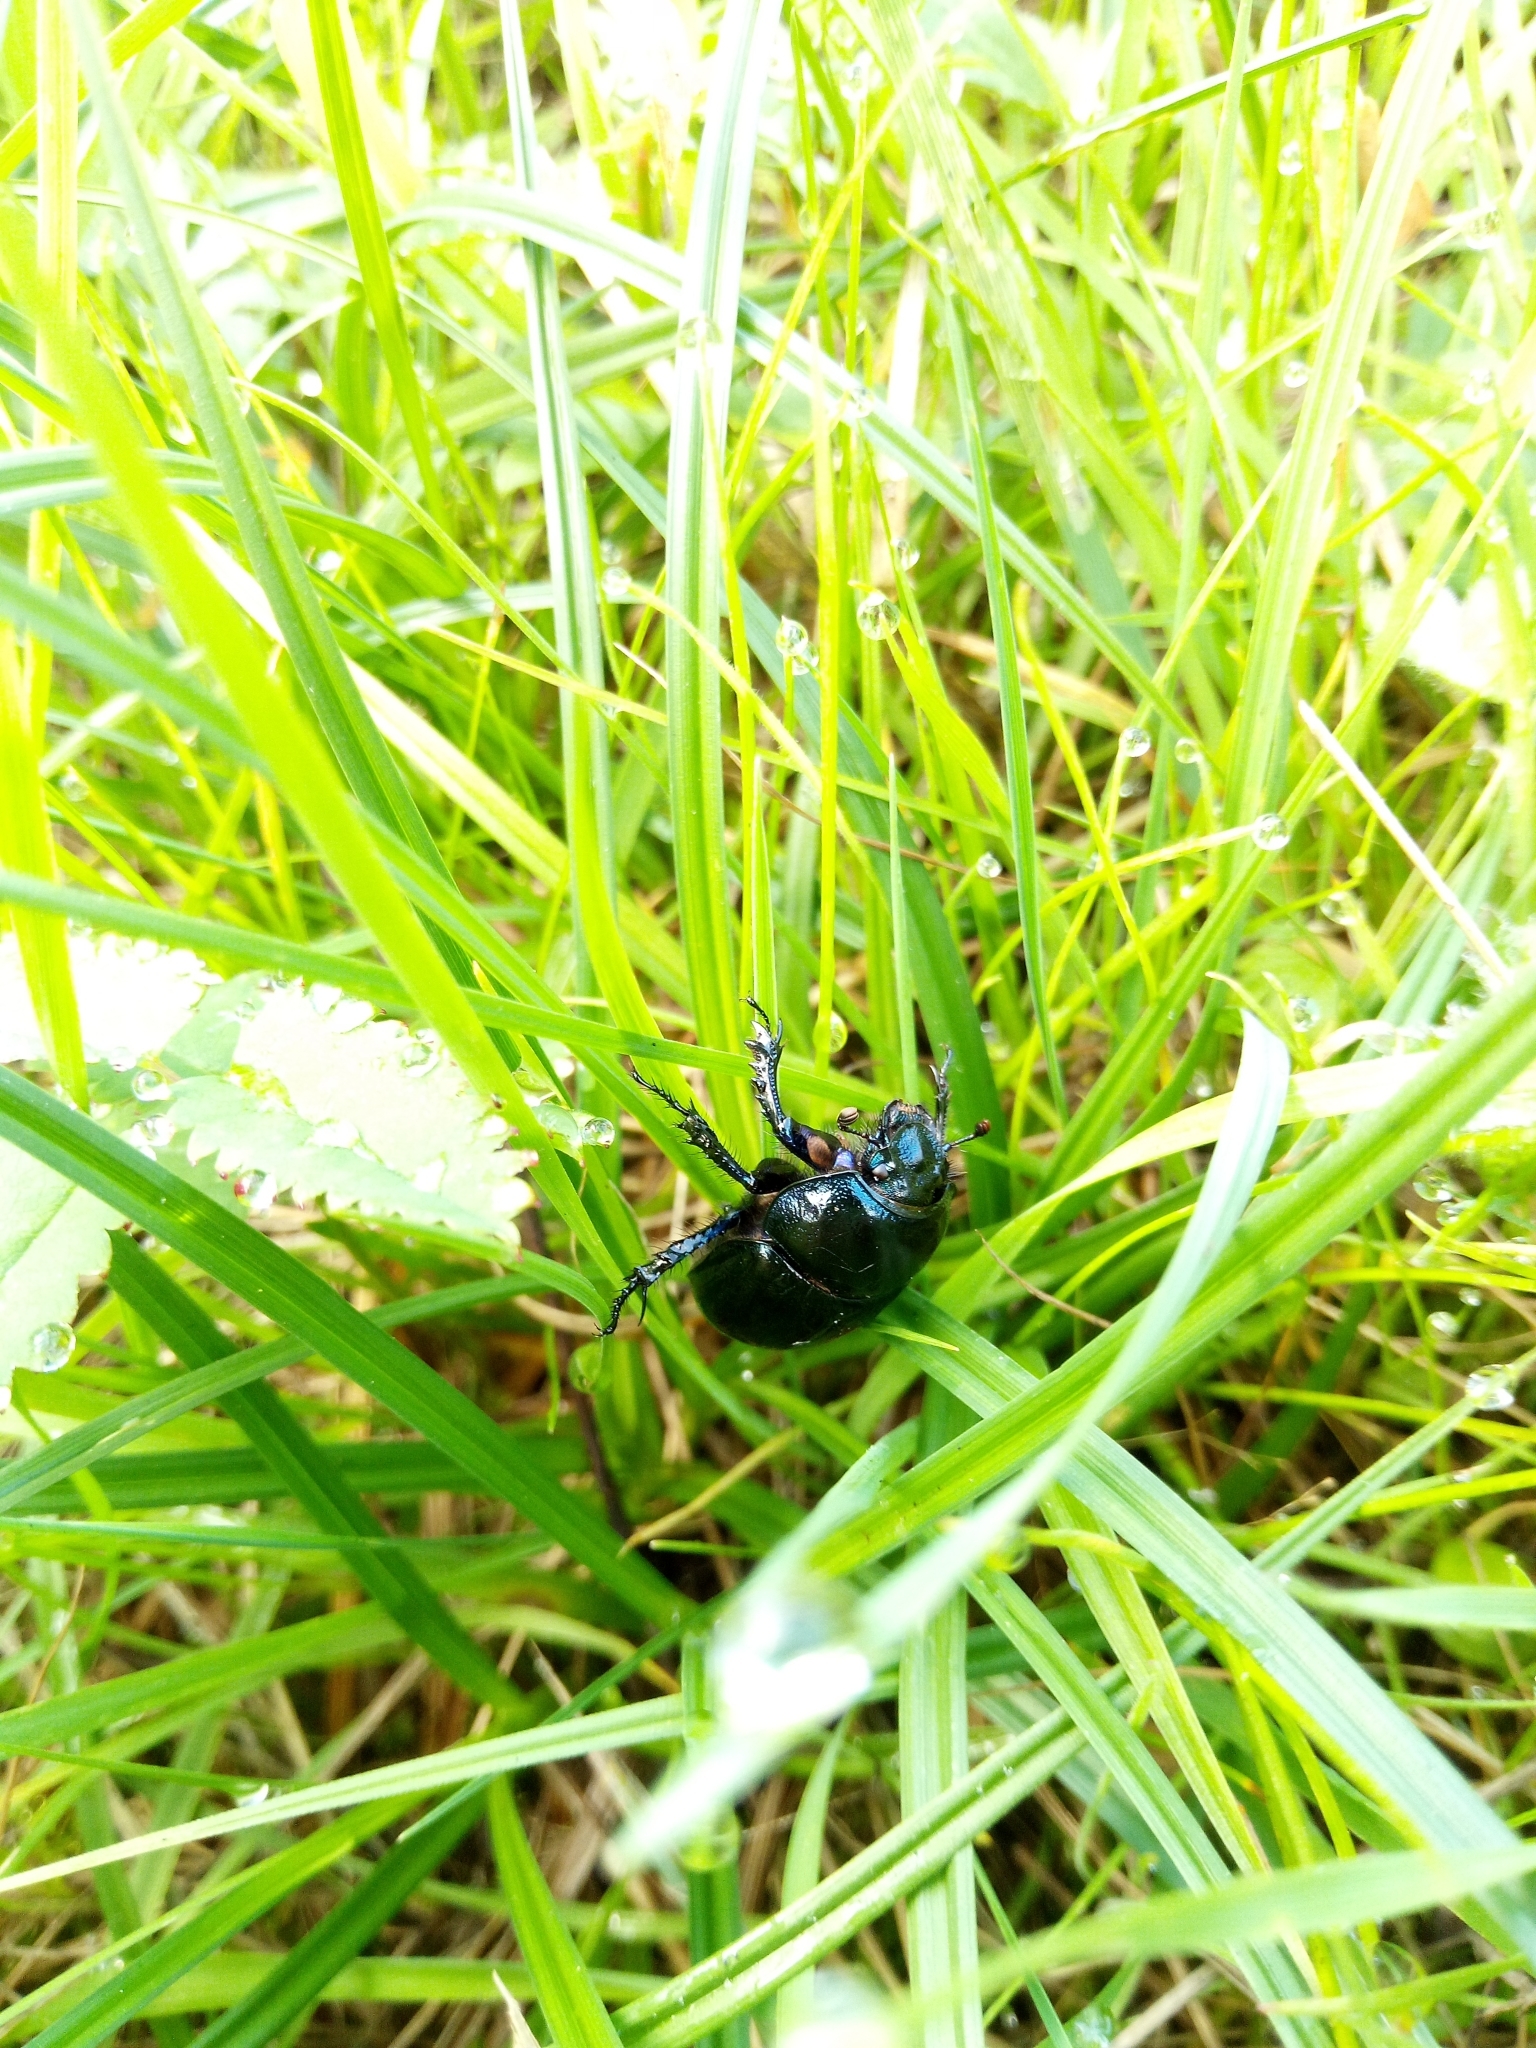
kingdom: Animalia
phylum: Arthropoda
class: Insecta
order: Coleoptera
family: Geotrupidae
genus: Anoplotrupes
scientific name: Anoplotrupes stercorosus
